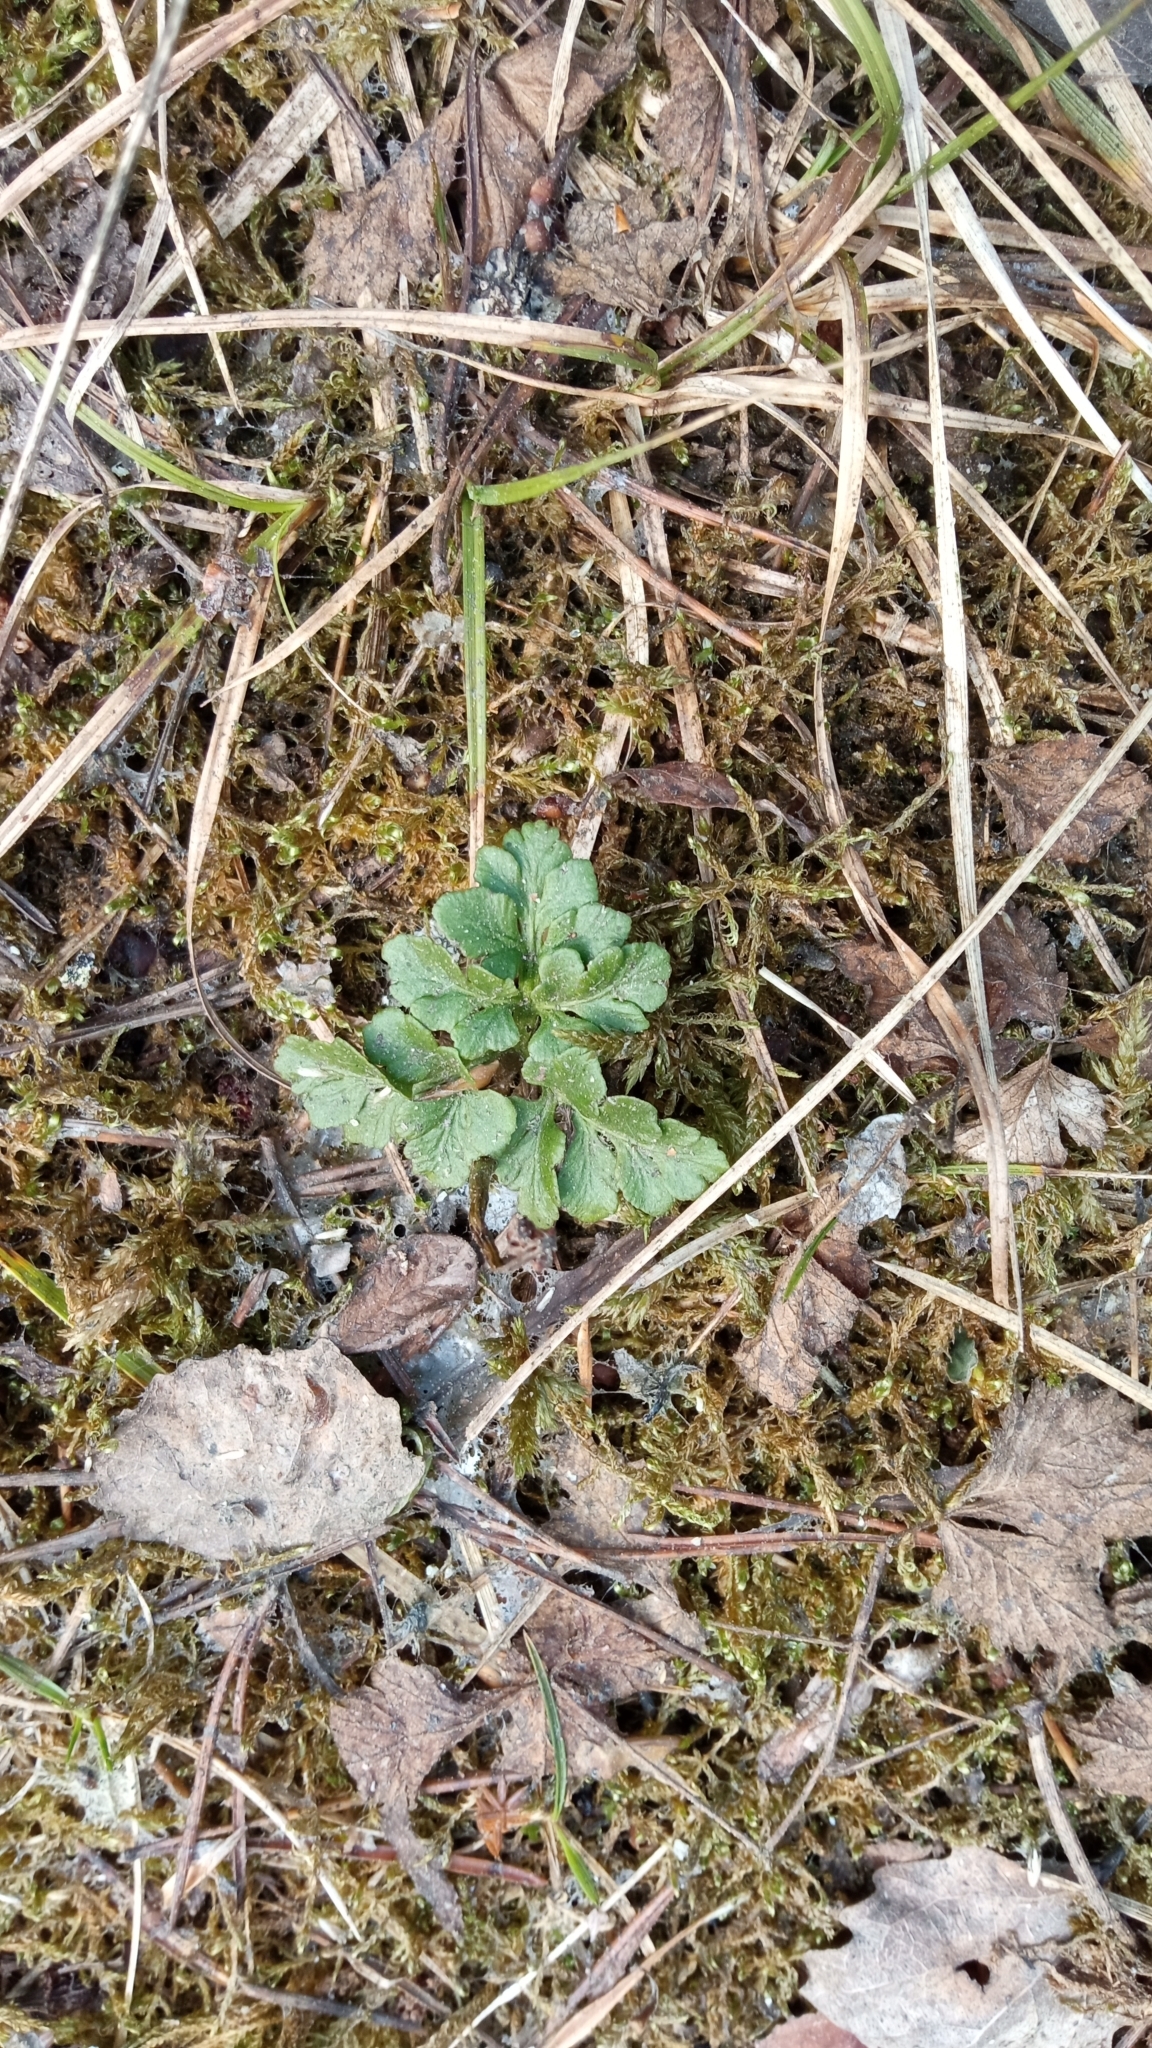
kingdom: Plantae
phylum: Tracheophyta
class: Polypodiopsida
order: Ophioglossales
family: Ophioglossaceae
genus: Sceptridium
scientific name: Sceptridium multifidum
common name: Leathery grape fern
